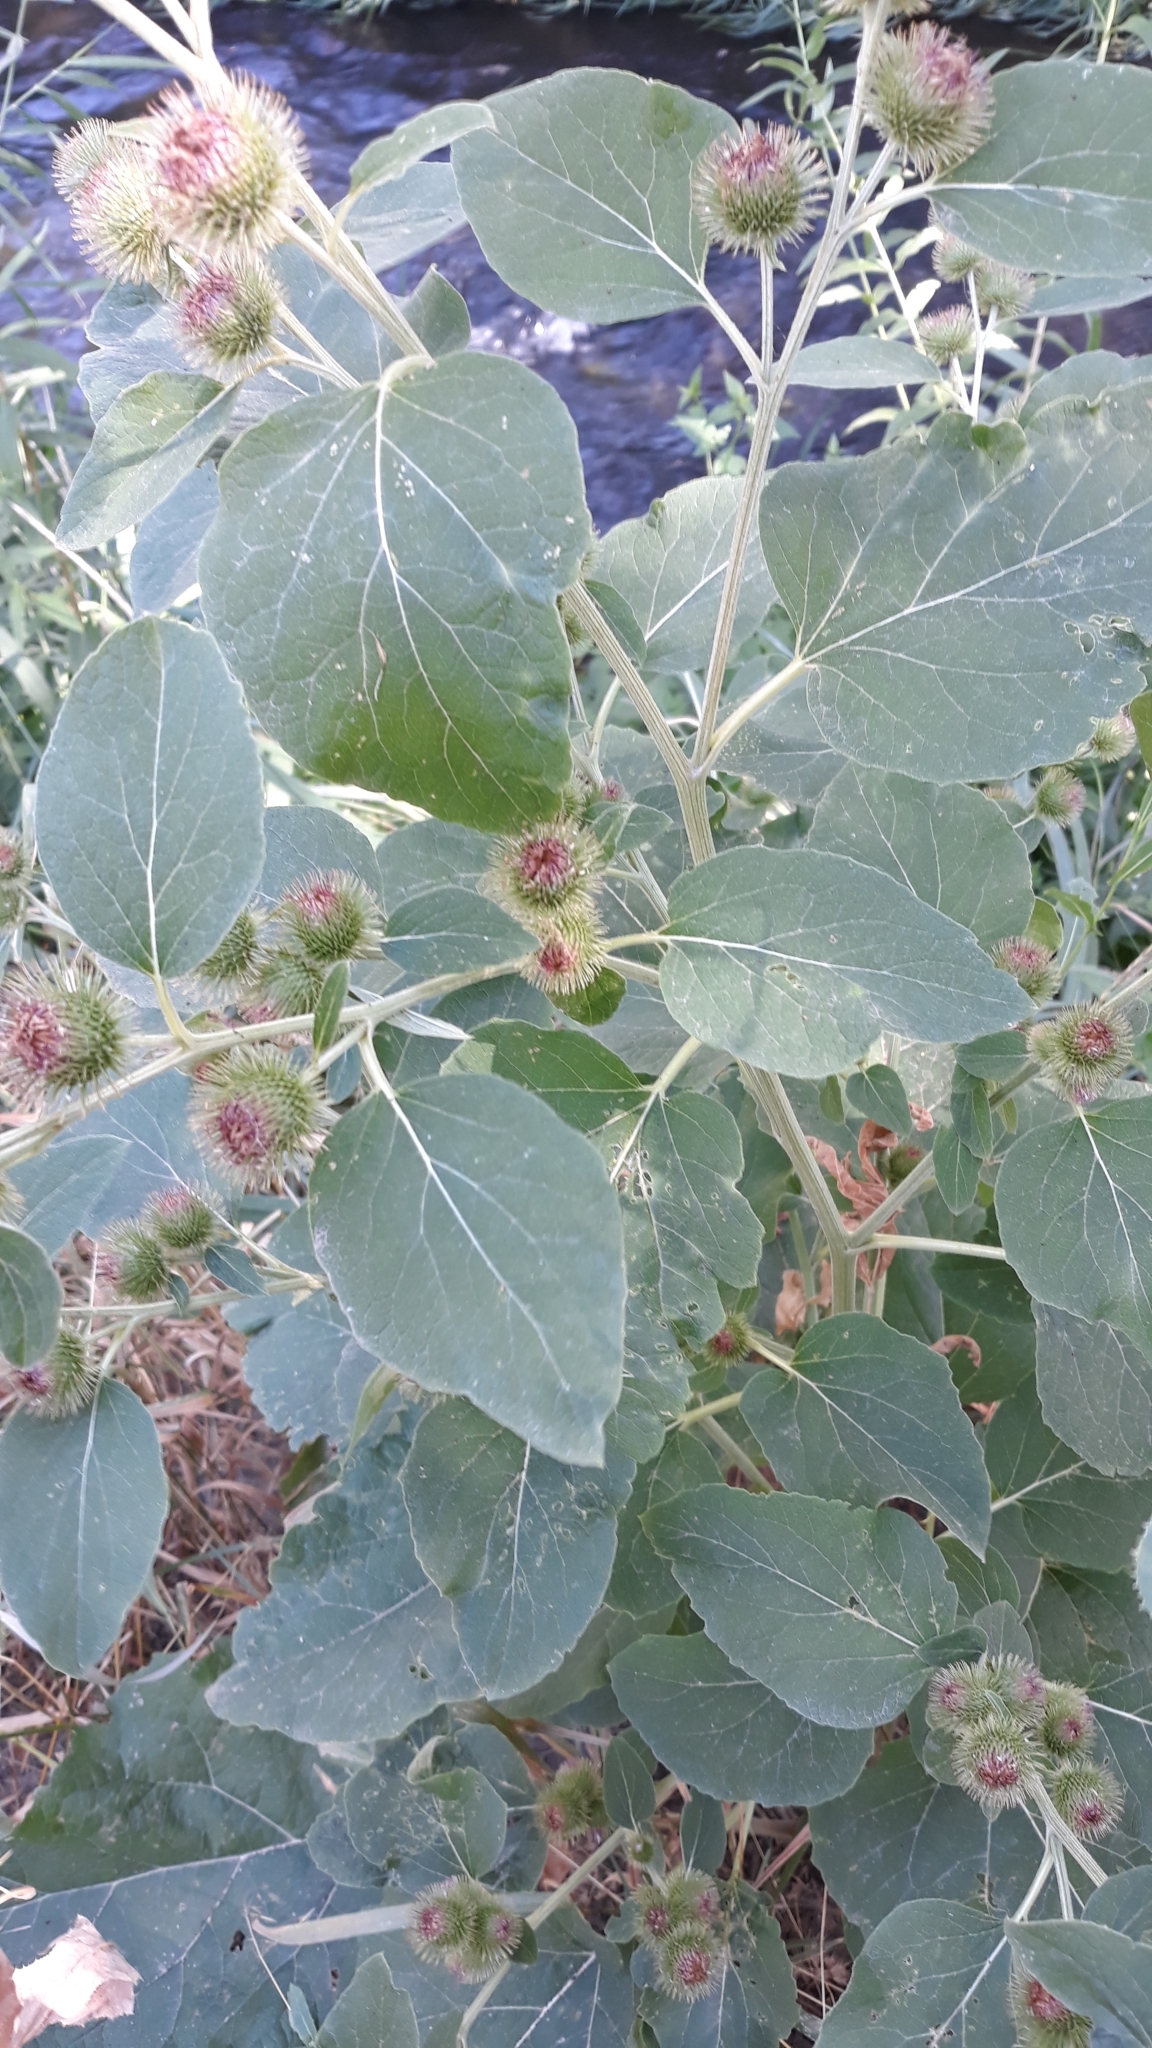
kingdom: Plantae
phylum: Tracheophyta
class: Magnoliopsida
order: Asterales
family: Asteraceae
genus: Arctium
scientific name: Arctium lappa
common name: Greater burdock
